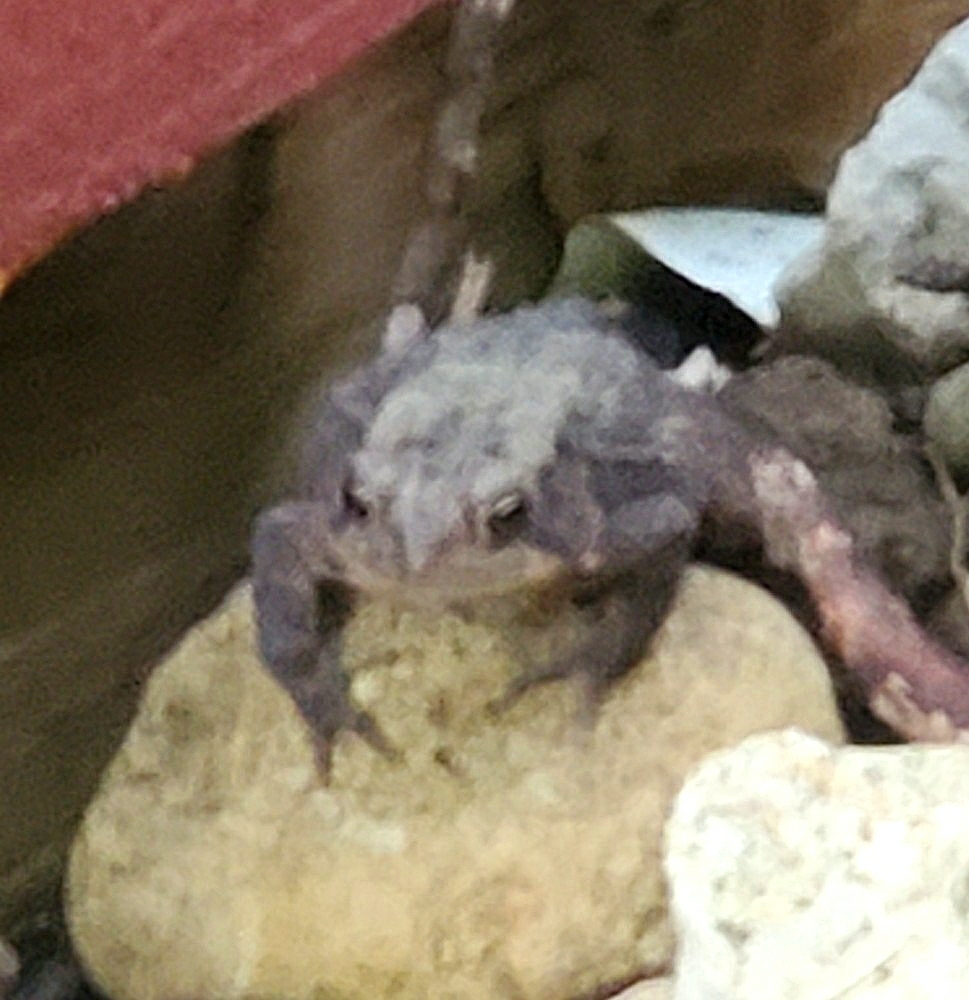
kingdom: Animalia
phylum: Chordata
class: Amphibia
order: Anura
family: Bufonidae
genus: Anaxyrus
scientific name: Anaxyrus americanus
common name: American toad
